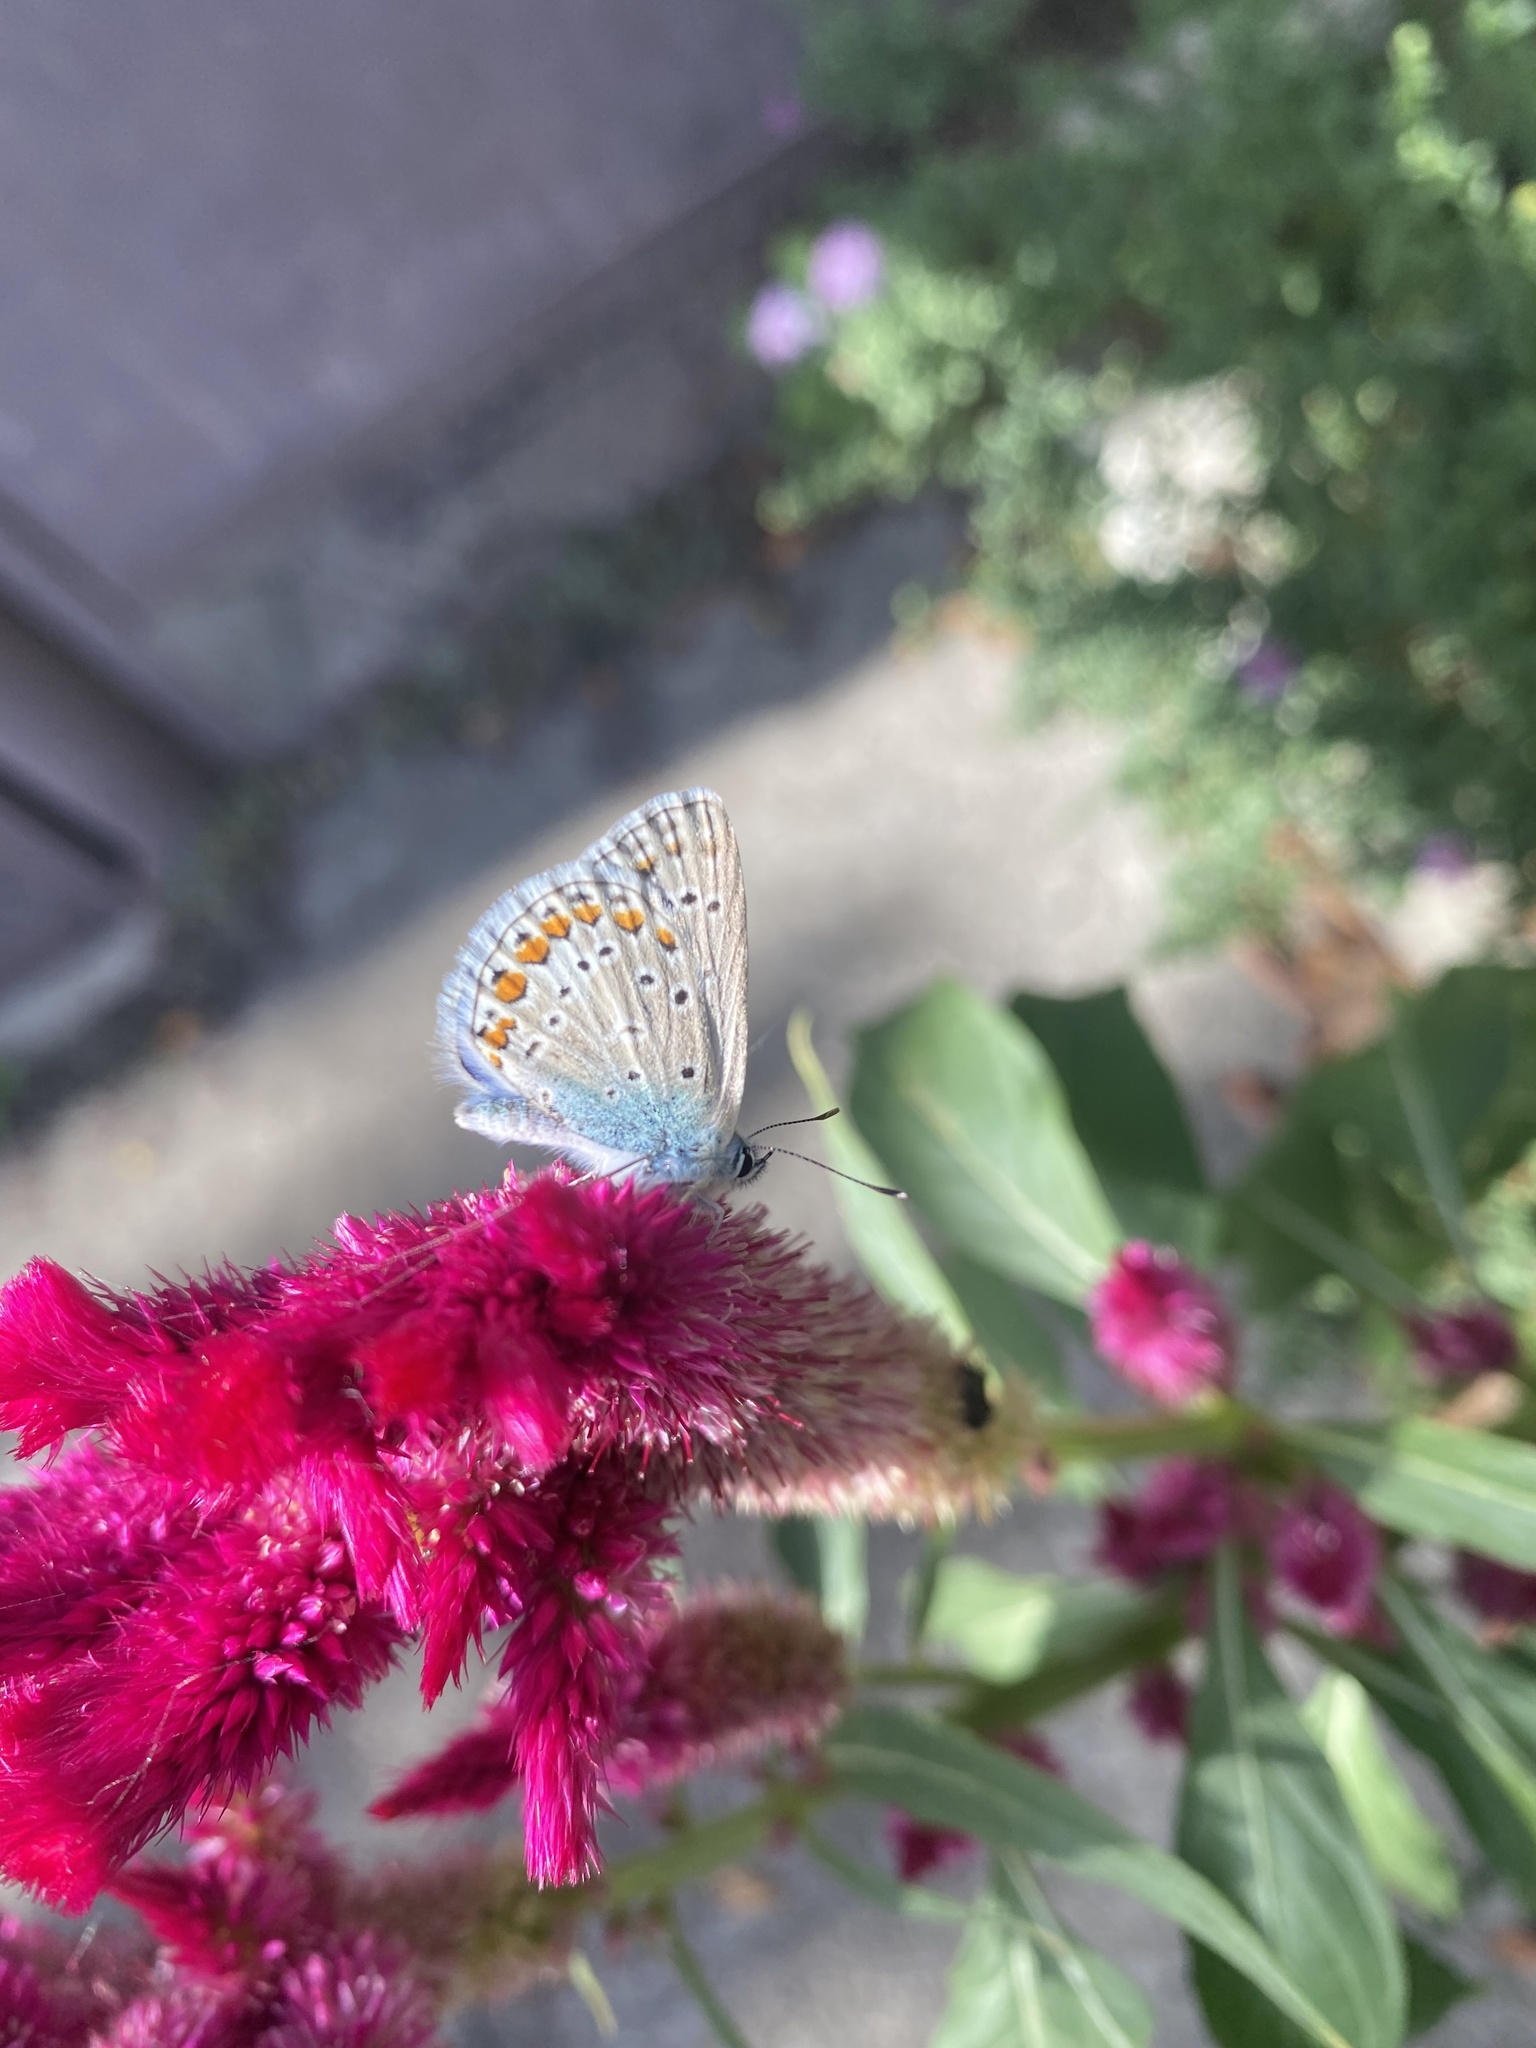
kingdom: Animalia
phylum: Arthropoda
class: Insecta
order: Lepidoptera
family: Lycaenidae
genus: Polyommatus
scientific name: Polyommatus icarus
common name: Common blue
